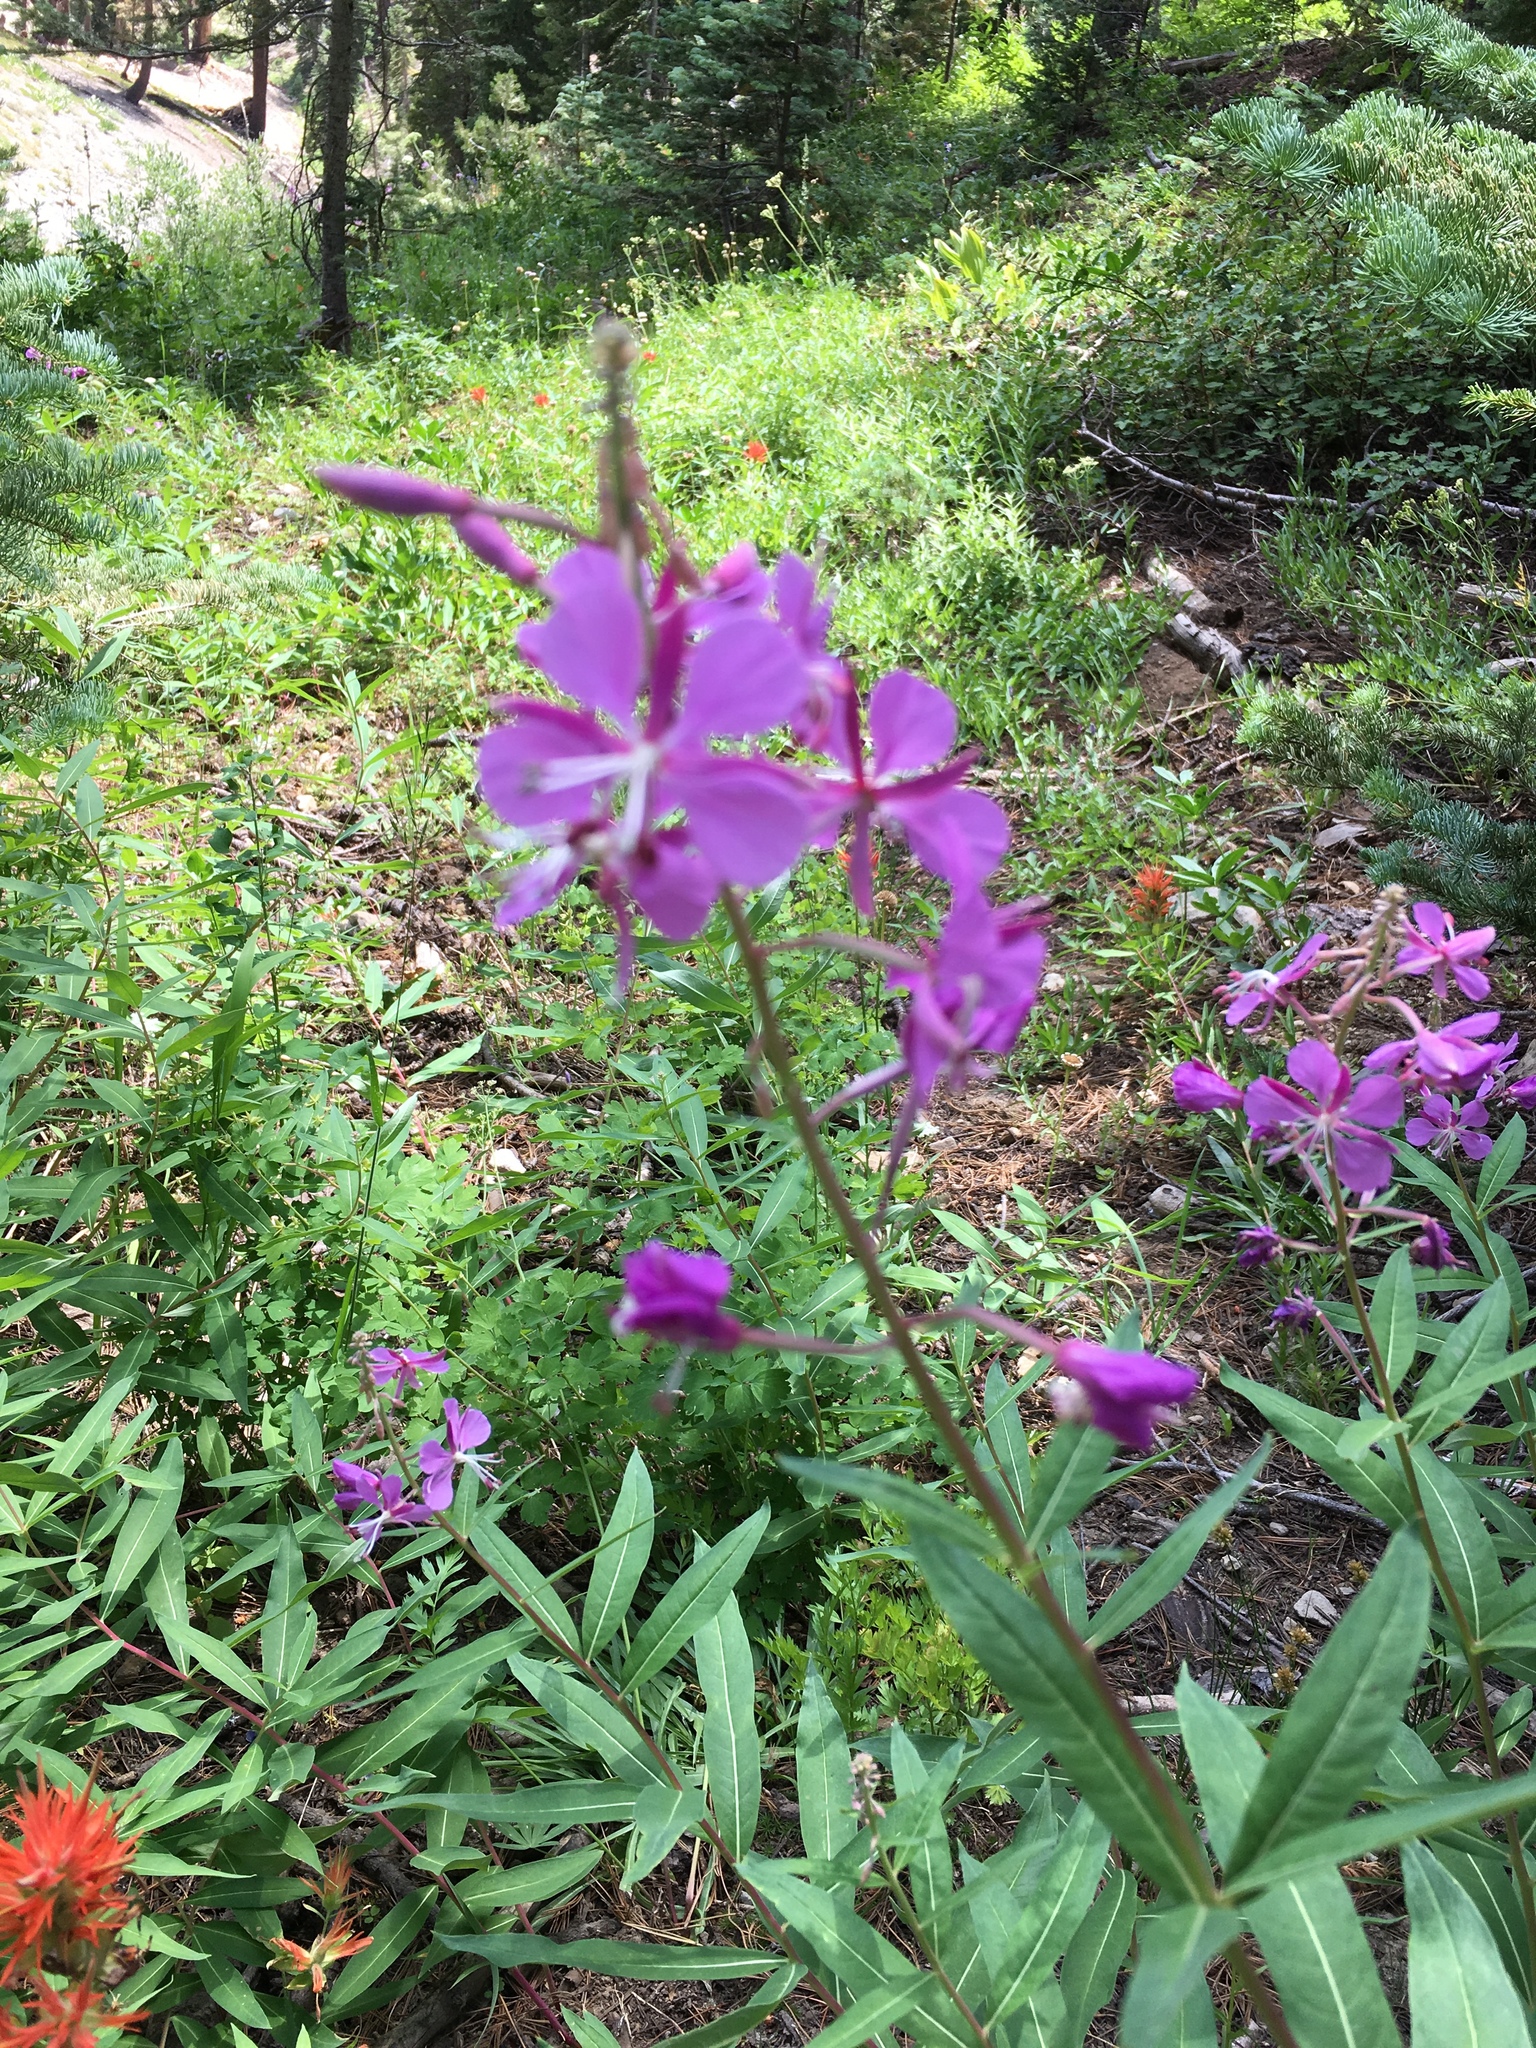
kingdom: Plantae
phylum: Tracheophyta
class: Magnoliopsida
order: Myrtales
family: Onagraceae
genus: Chamaenerion
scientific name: Chamaenerion angustifolium
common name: Fireweed
